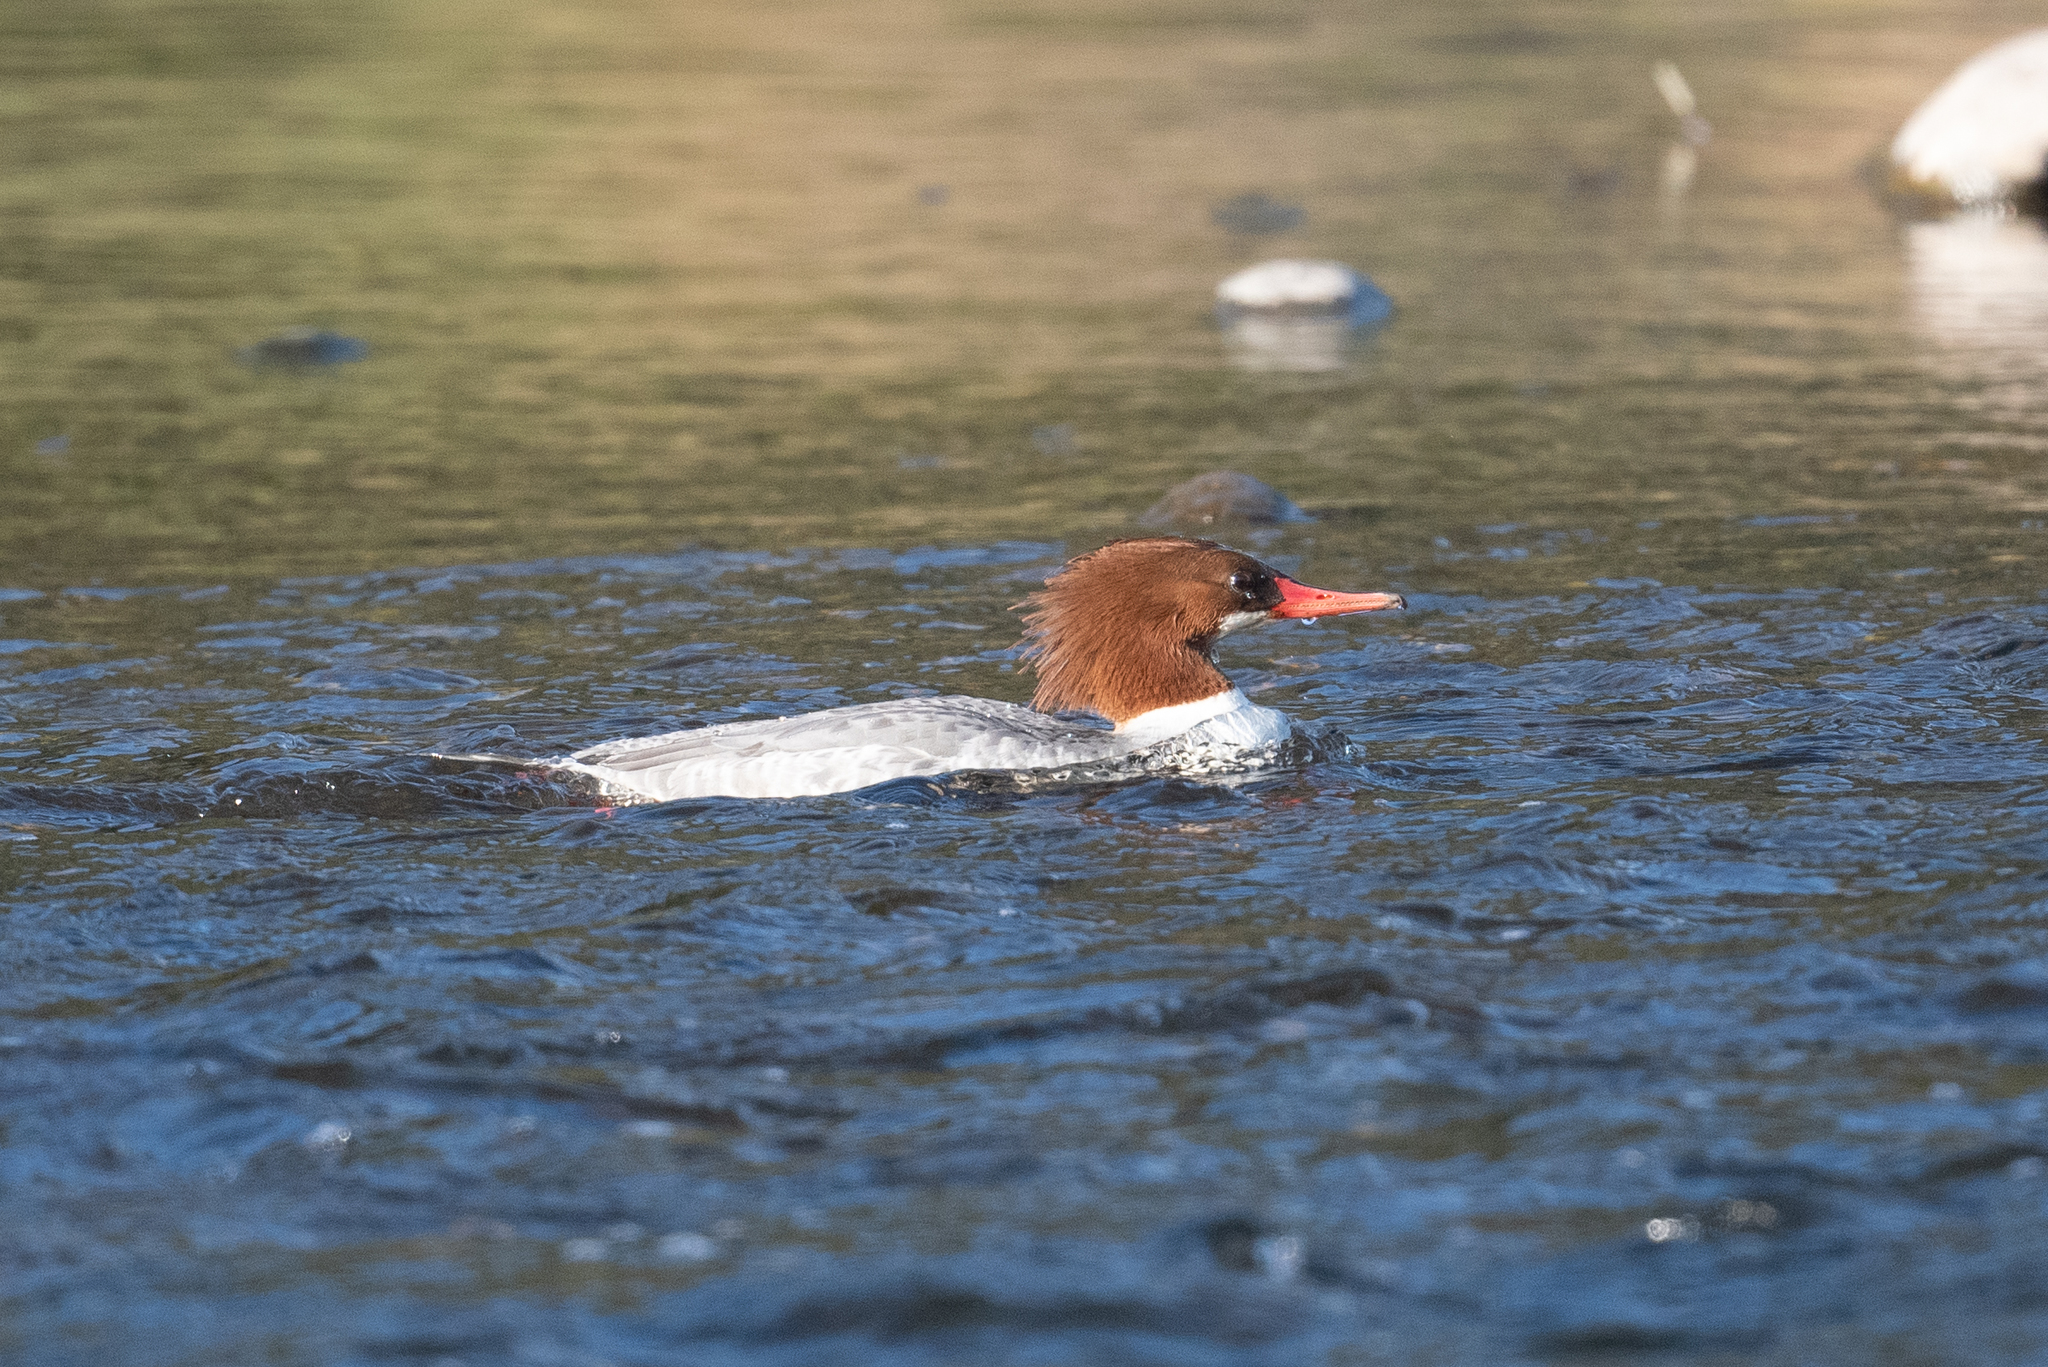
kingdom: Animalia
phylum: Chordata
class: Aves
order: Anseriformes
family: Anatidae
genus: Mergus
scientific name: Mergus merganser
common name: Common merganser
